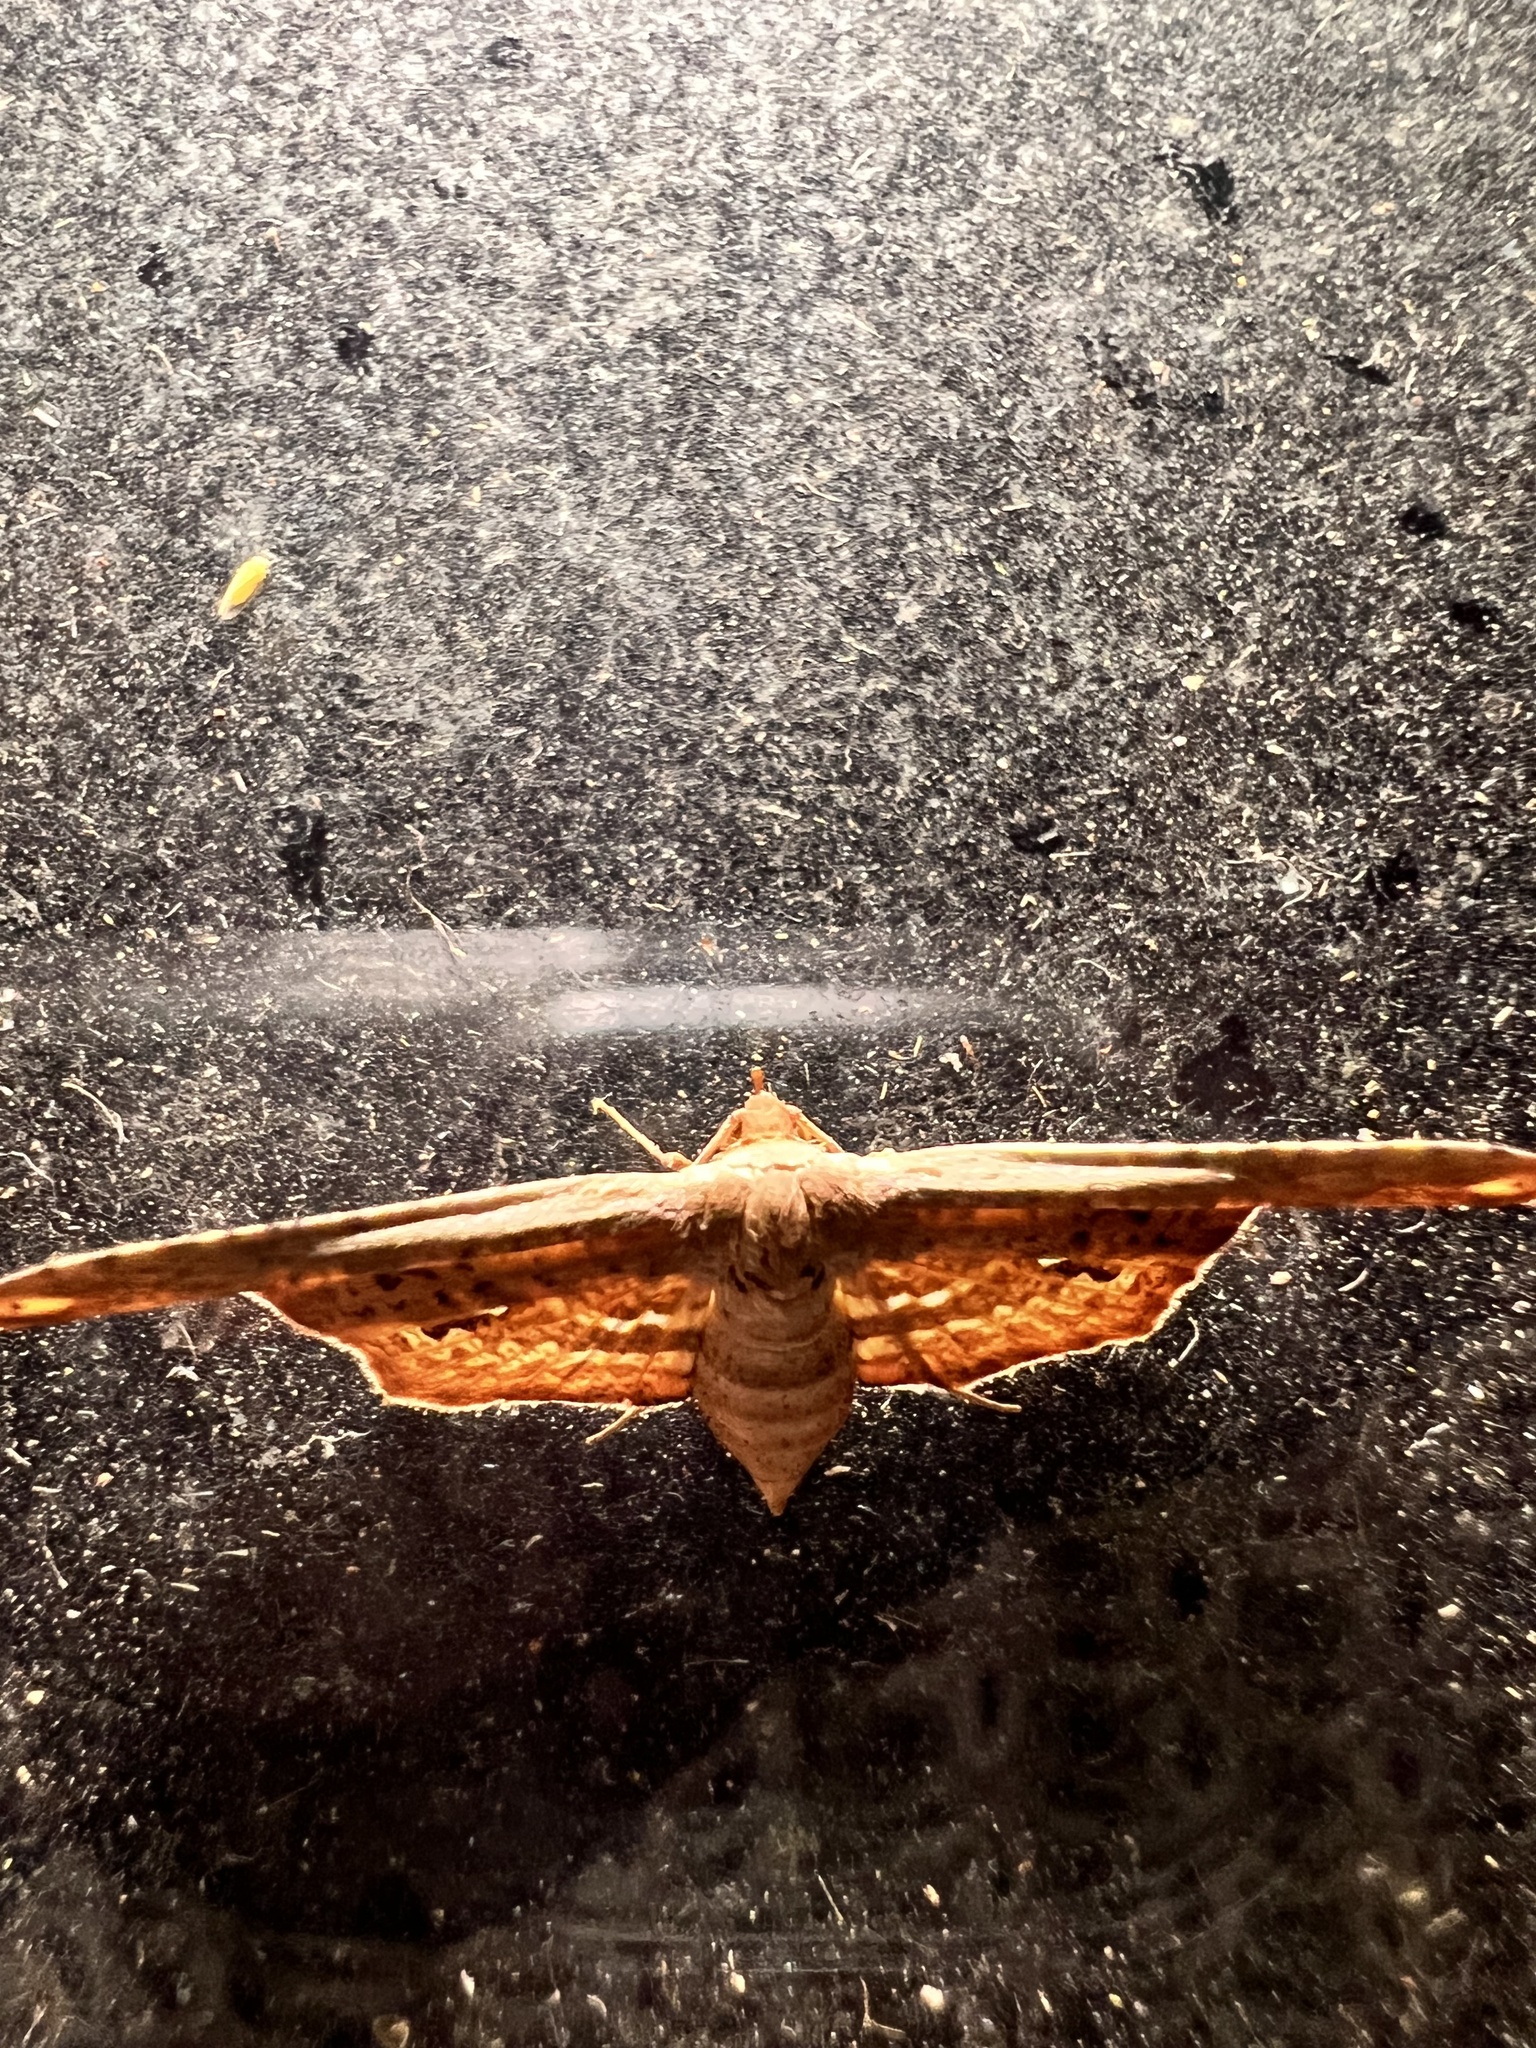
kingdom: Animalia
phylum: Arthropoda
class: Insecta
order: Lepidoptera
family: Thyrididae
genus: Picrostomastis
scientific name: Picrostomastis marginepunctalis
